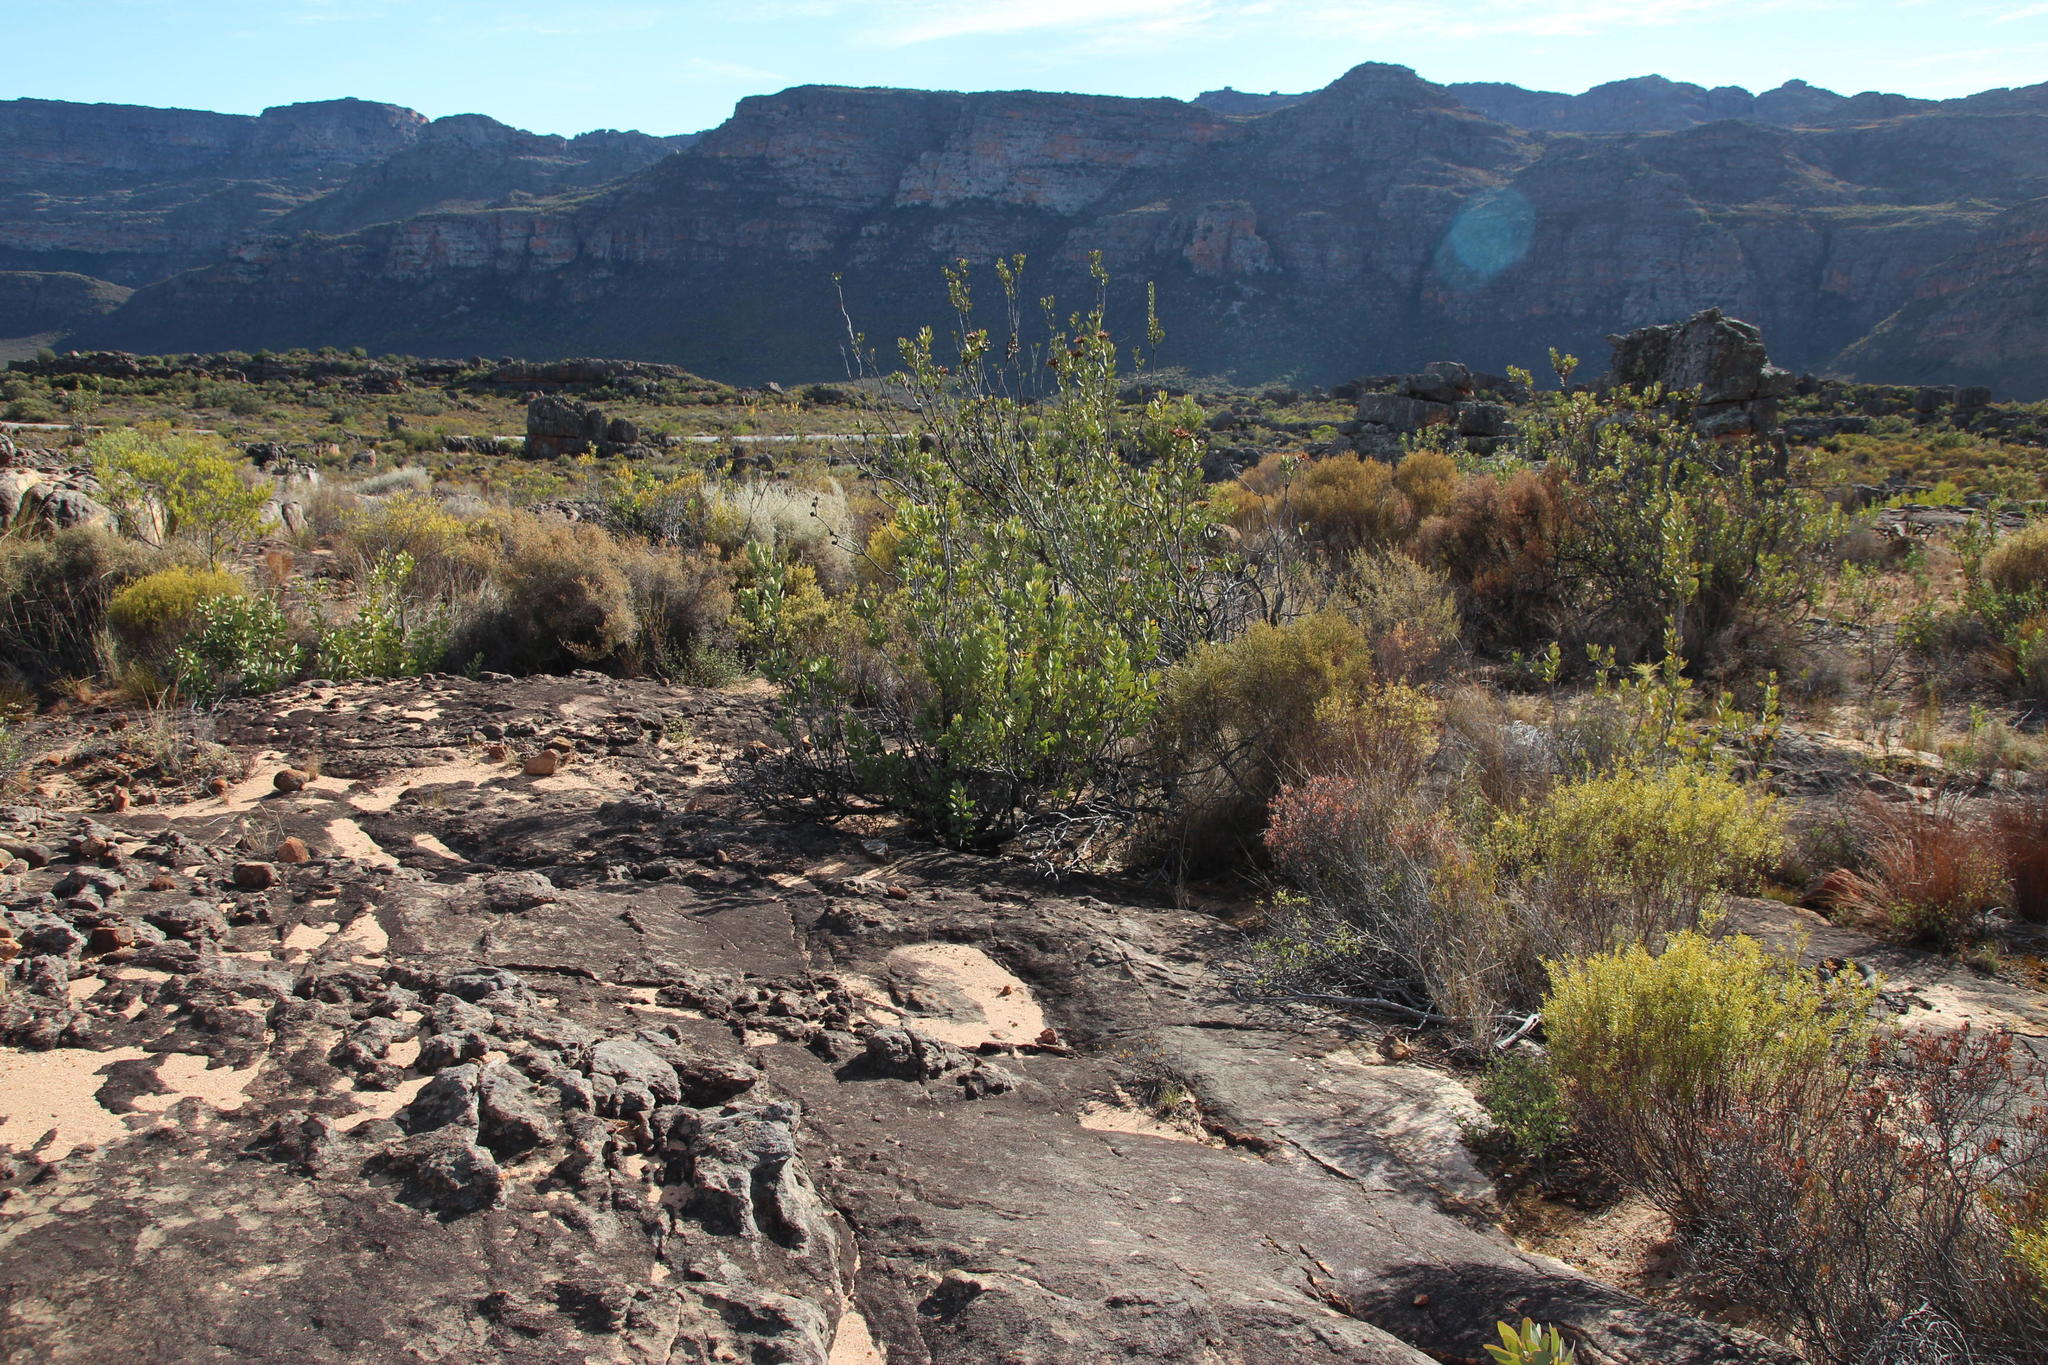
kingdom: Plantae
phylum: Tracheophyta
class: Magnoliopsida
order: Proteales
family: Proteaceae
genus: Protea
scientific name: Protea glabra
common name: Chestnut sugarbush
